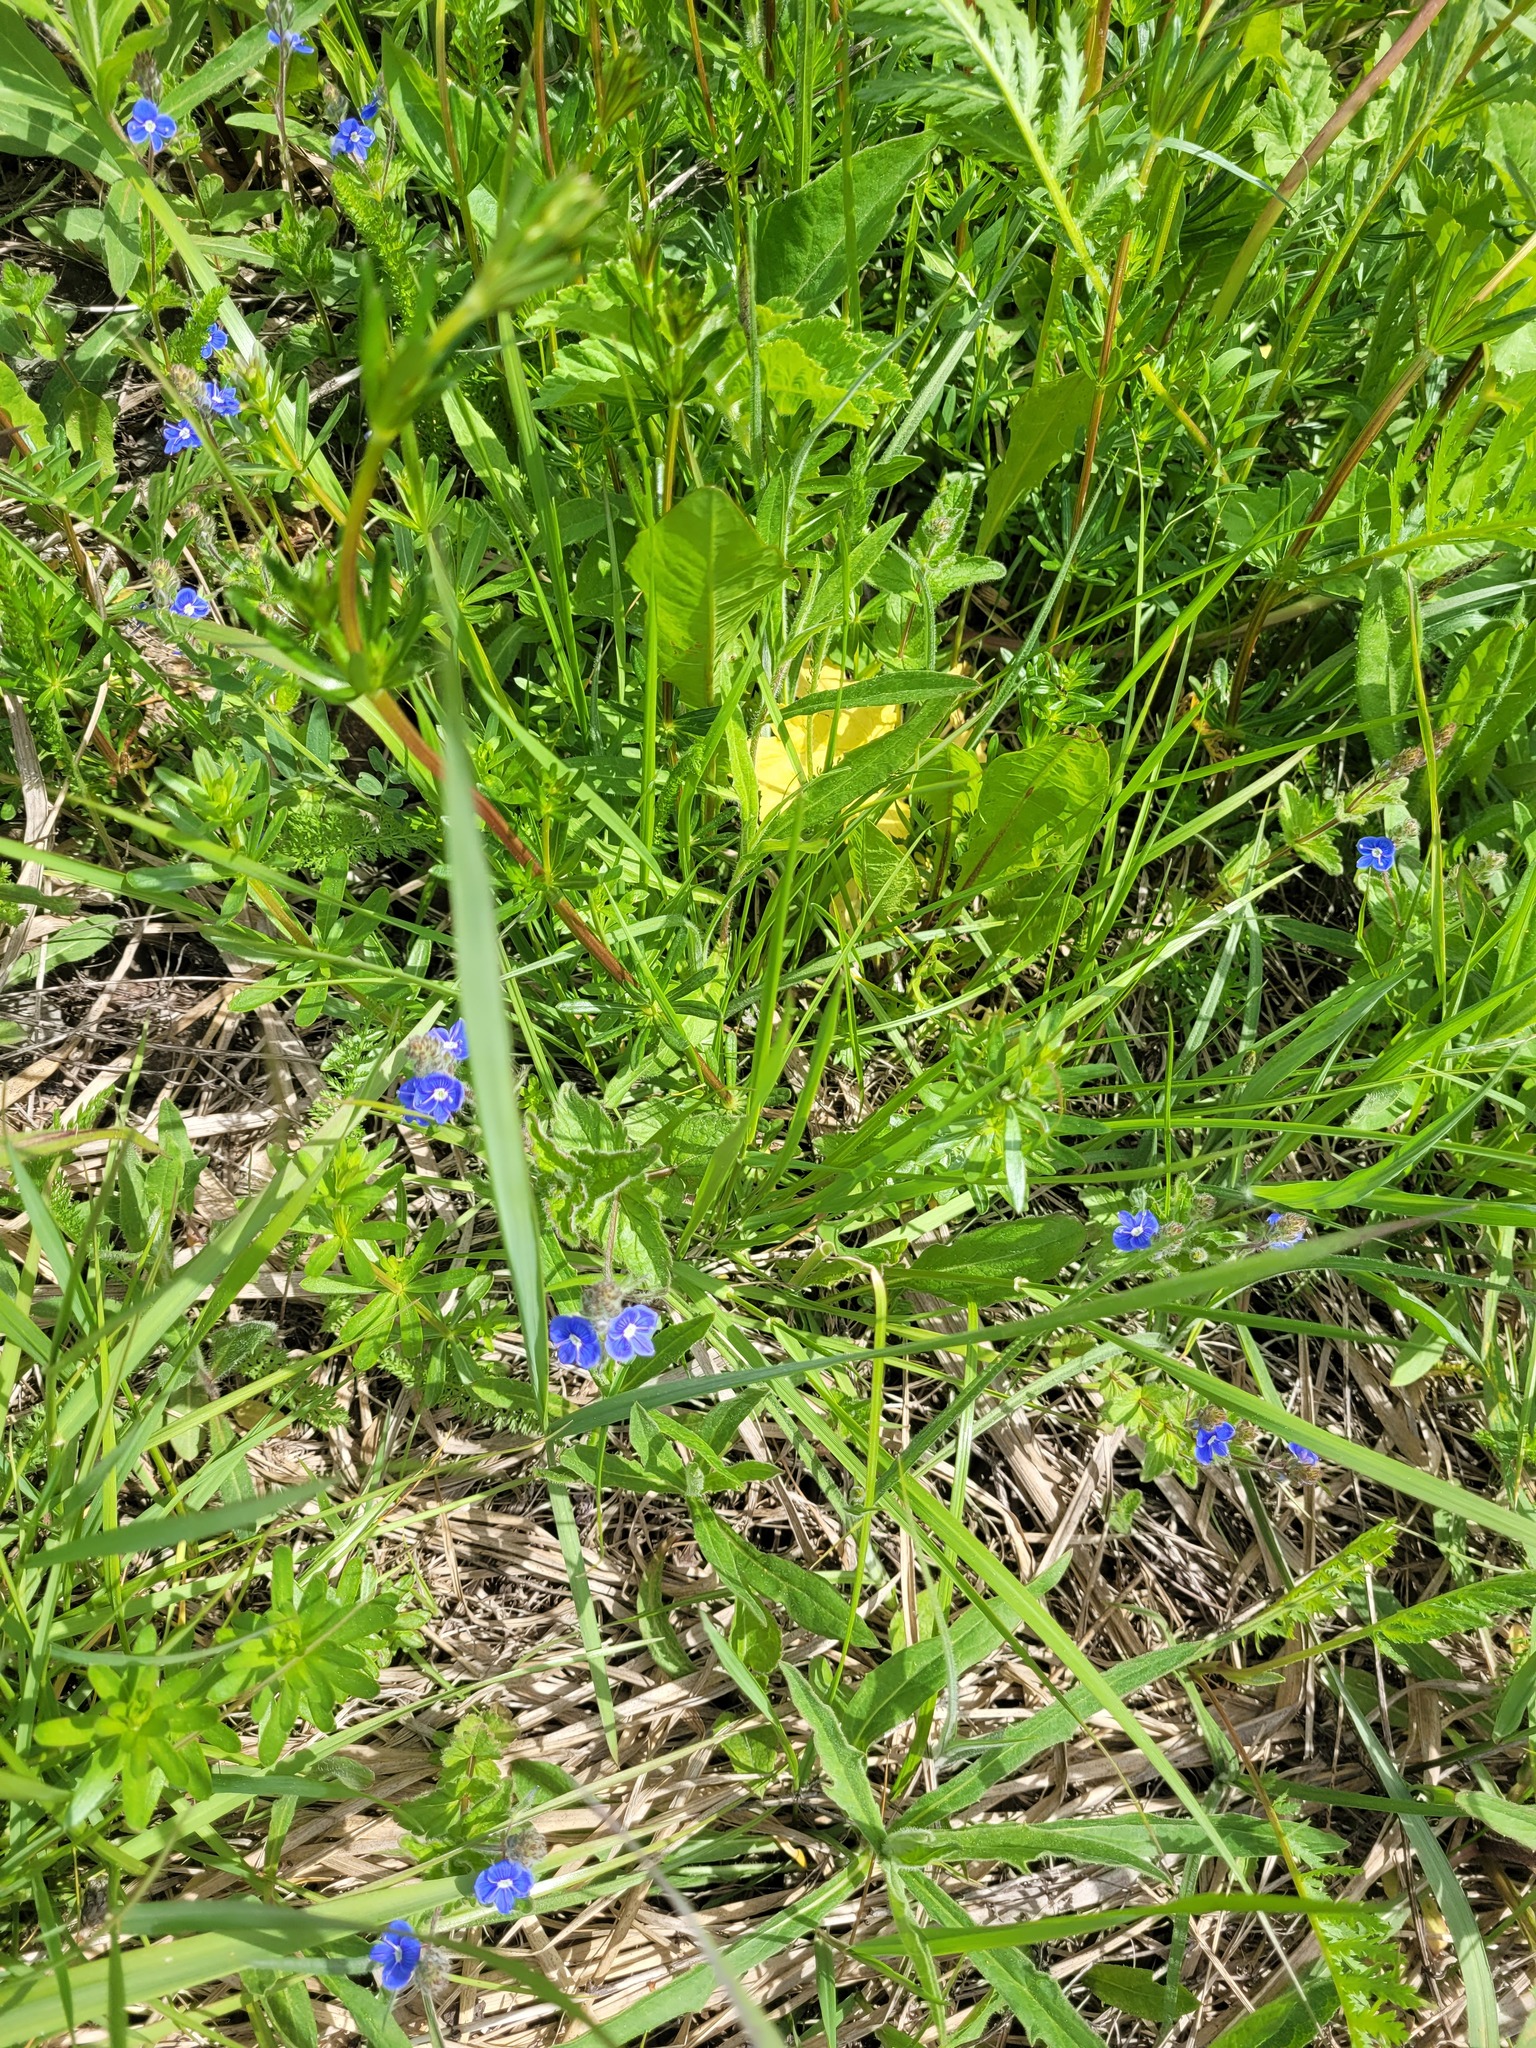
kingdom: Plantae
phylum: Tracheophyta
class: Magnoliopsida
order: Lamiales
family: Plantaginaceae
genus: Veronica
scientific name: Veronica chamaedrys
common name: Germander speedwell
